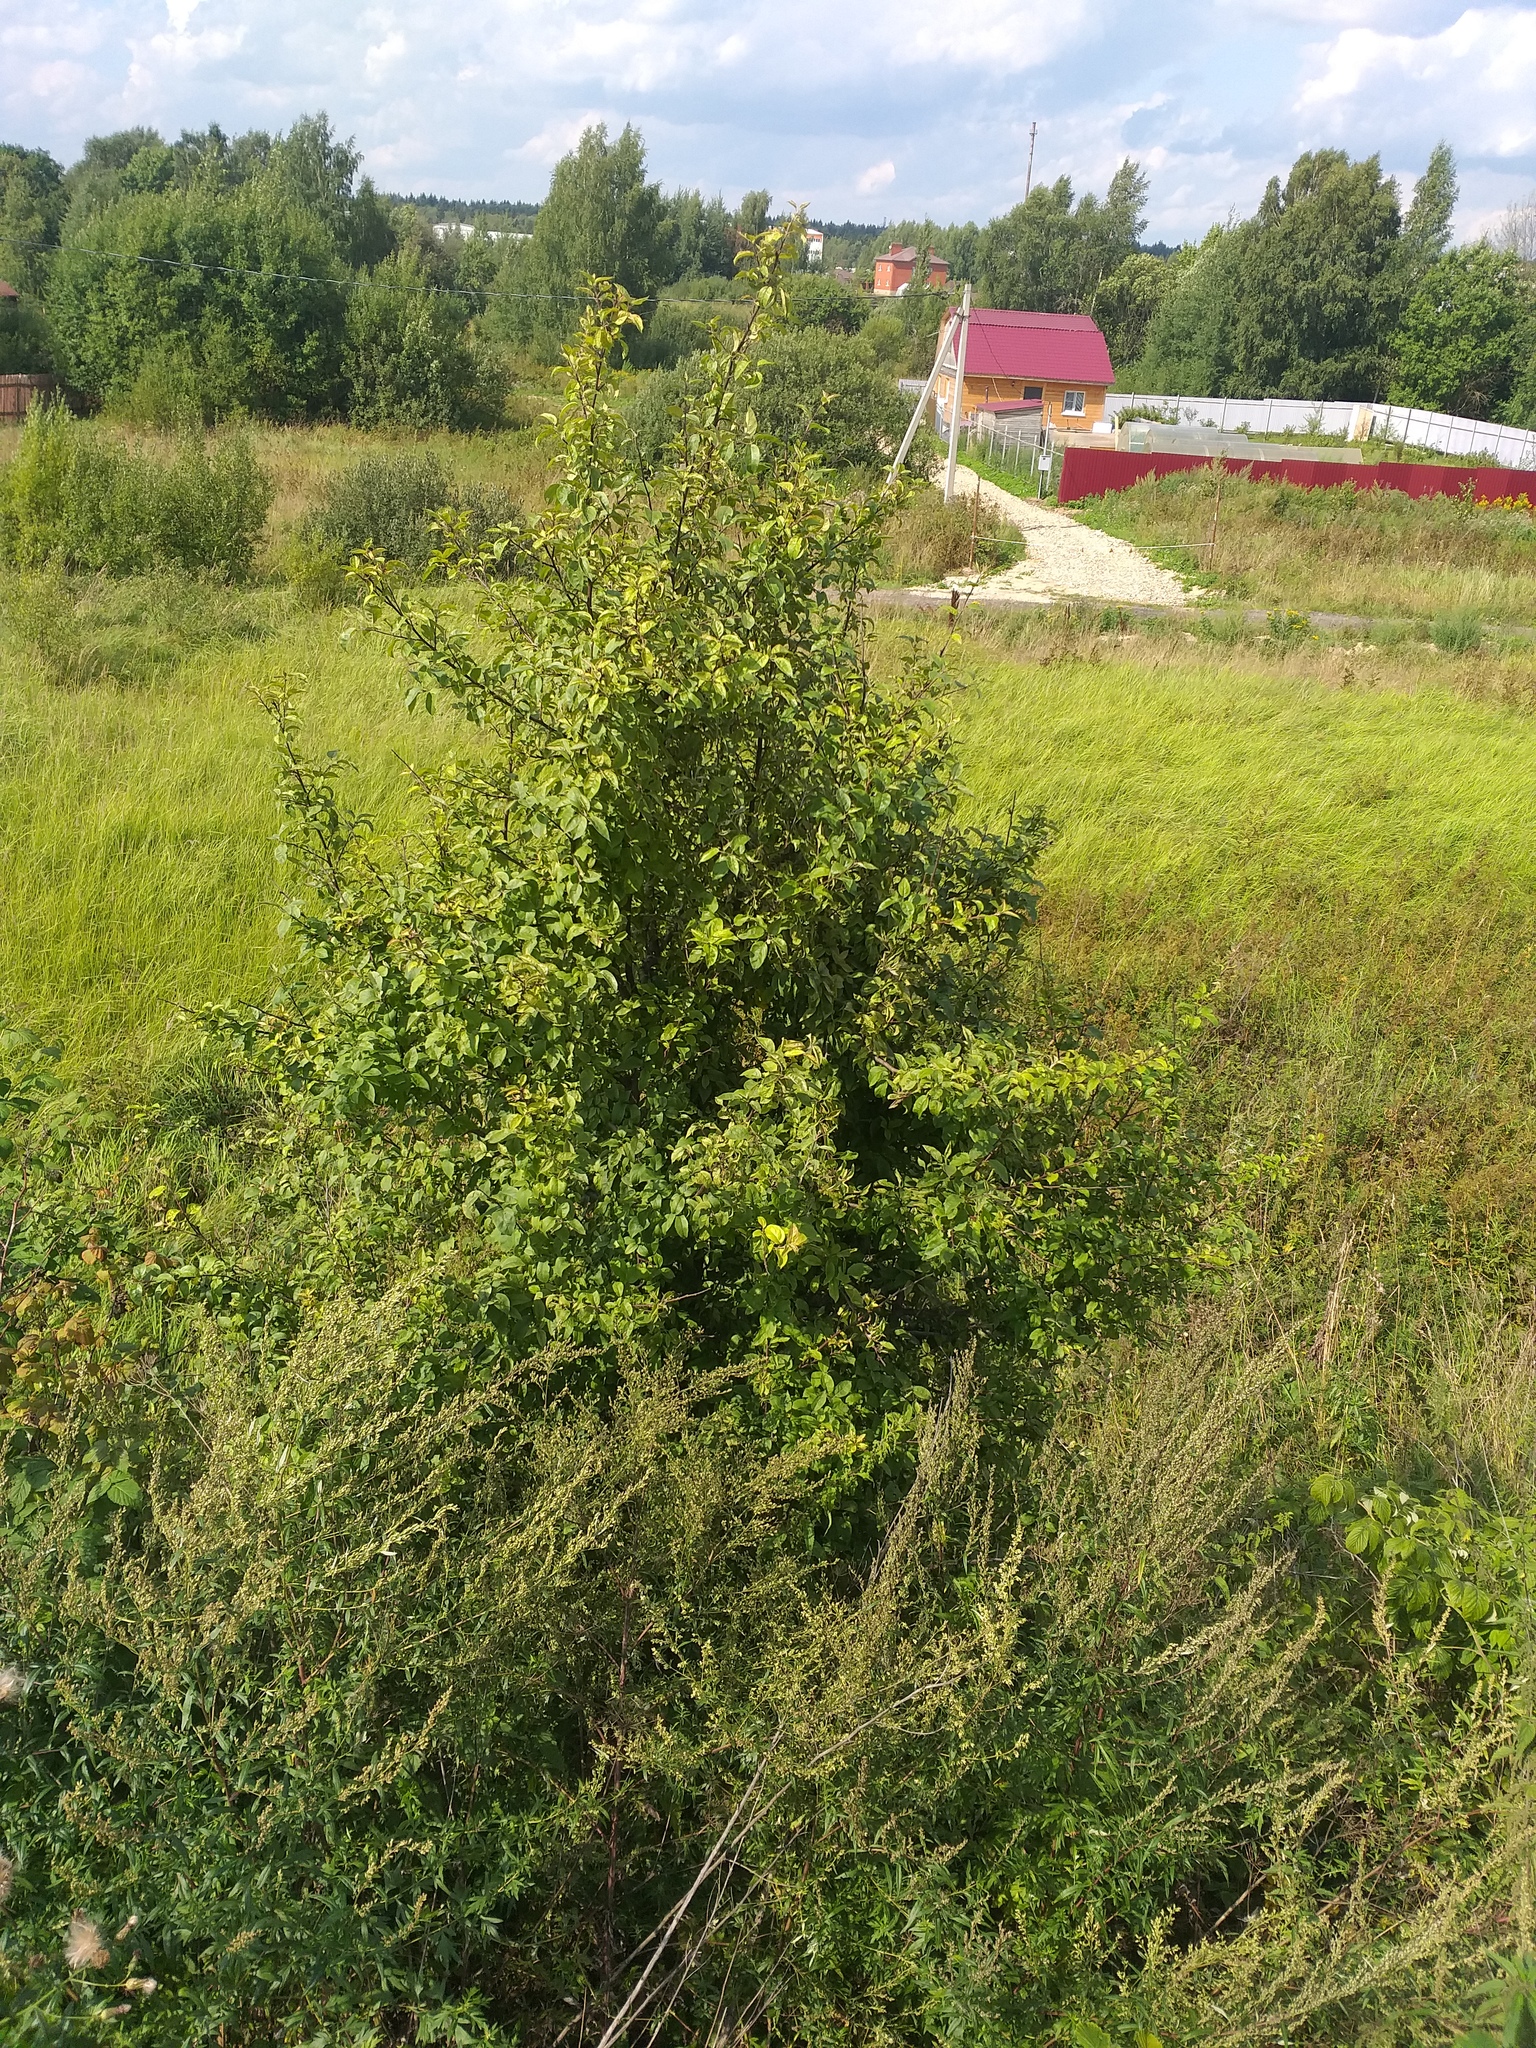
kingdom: Plantae
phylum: Tracheophyta
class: Magnoliopsida
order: Rosales
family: Rosaceae
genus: Malus
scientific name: Malus domestica
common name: Apple
